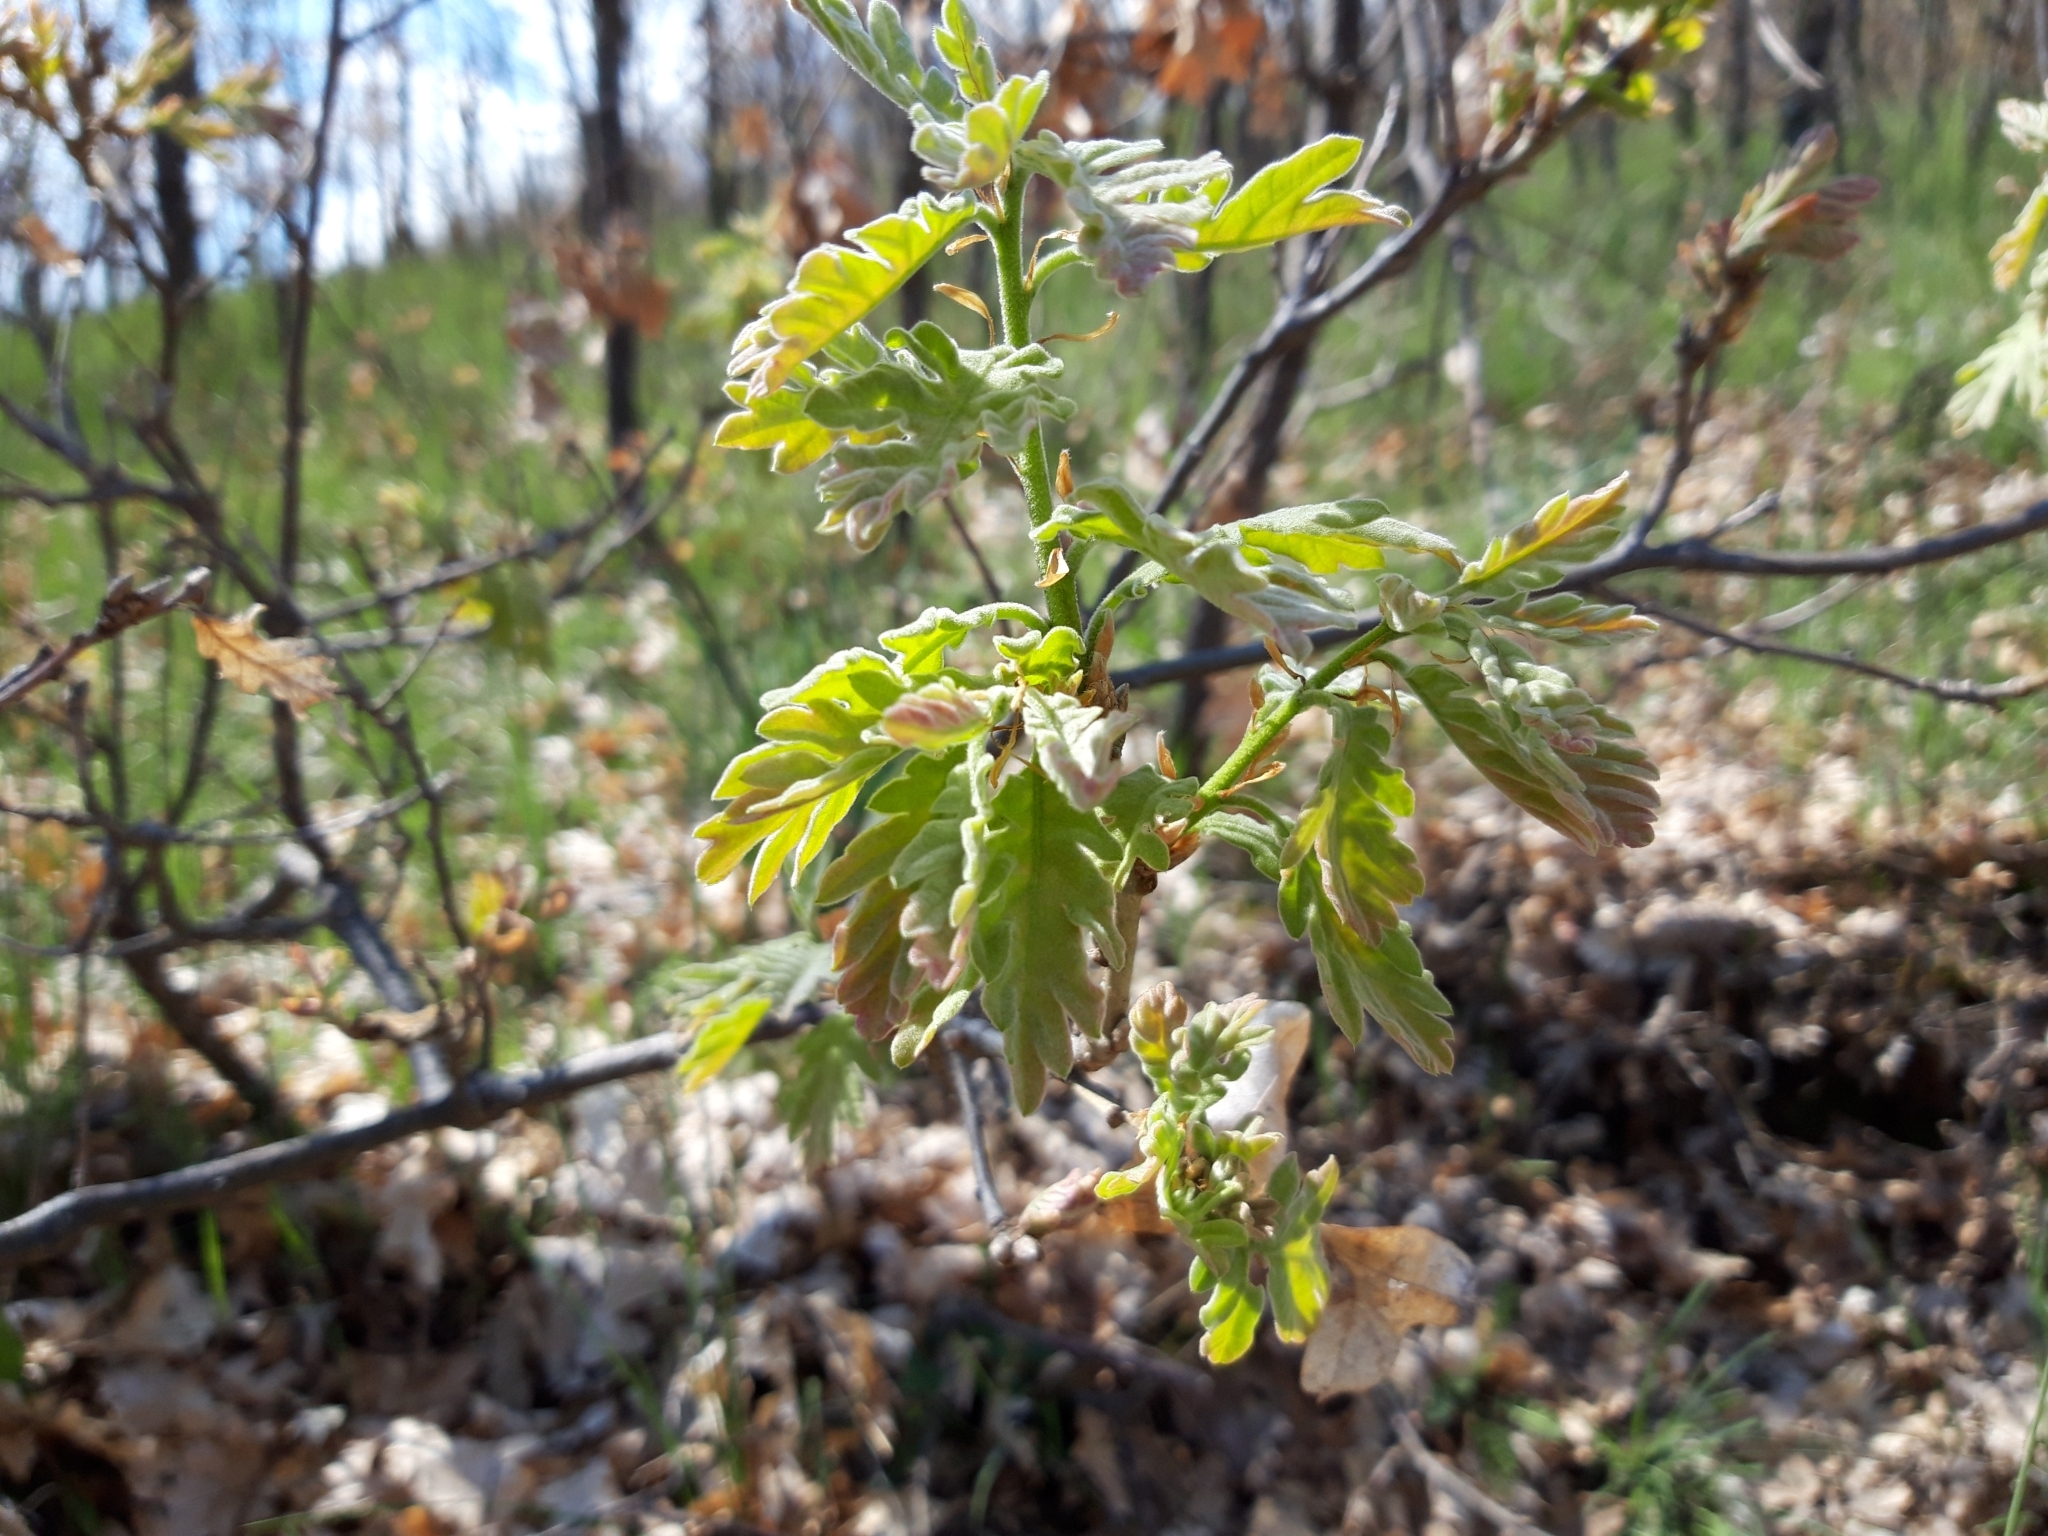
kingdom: Plantae
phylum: Tracheophyta
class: Magnoliopsida
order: Fagales
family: Fagaceae
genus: Quercus
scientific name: Quercus pyrenaica
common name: Pyrenean oak
